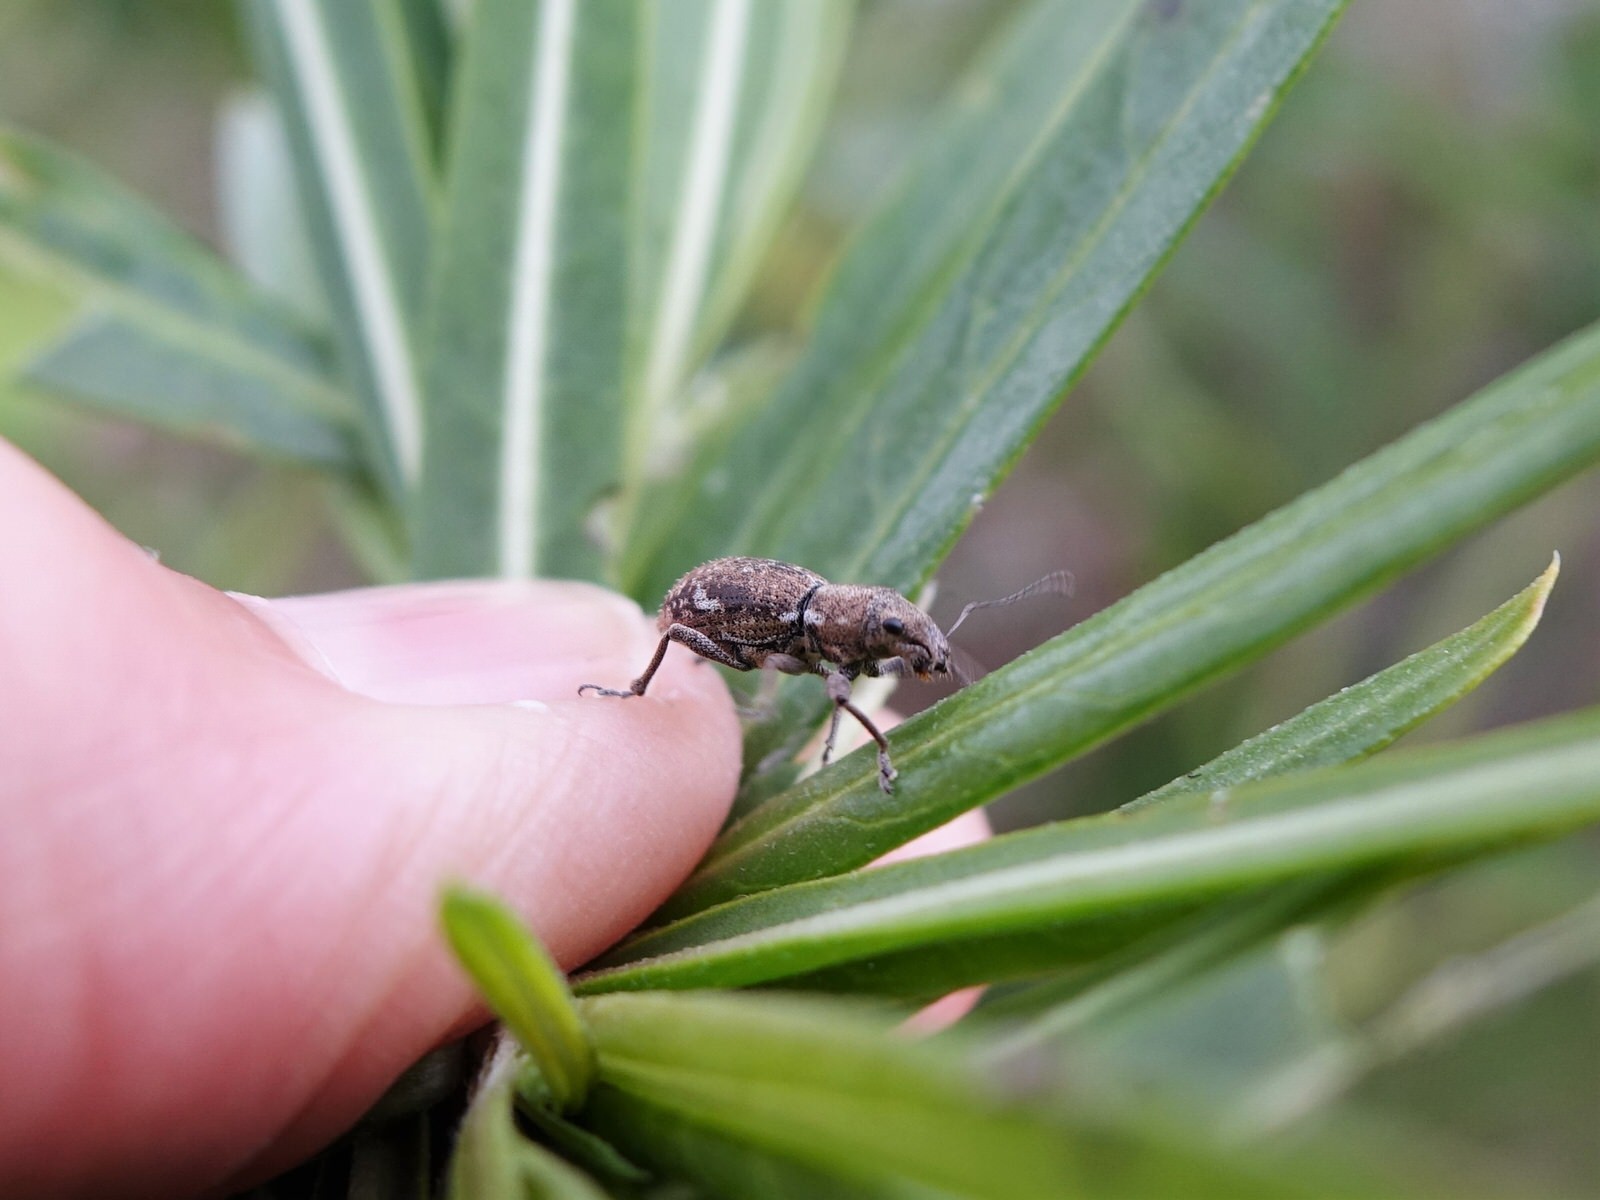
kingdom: Animalia
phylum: Arthropoda
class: Insecta
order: Coleoptera
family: Curculionidae
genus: Naupactus
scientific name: Naupactus cervinus
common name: Fuller rose beetle
